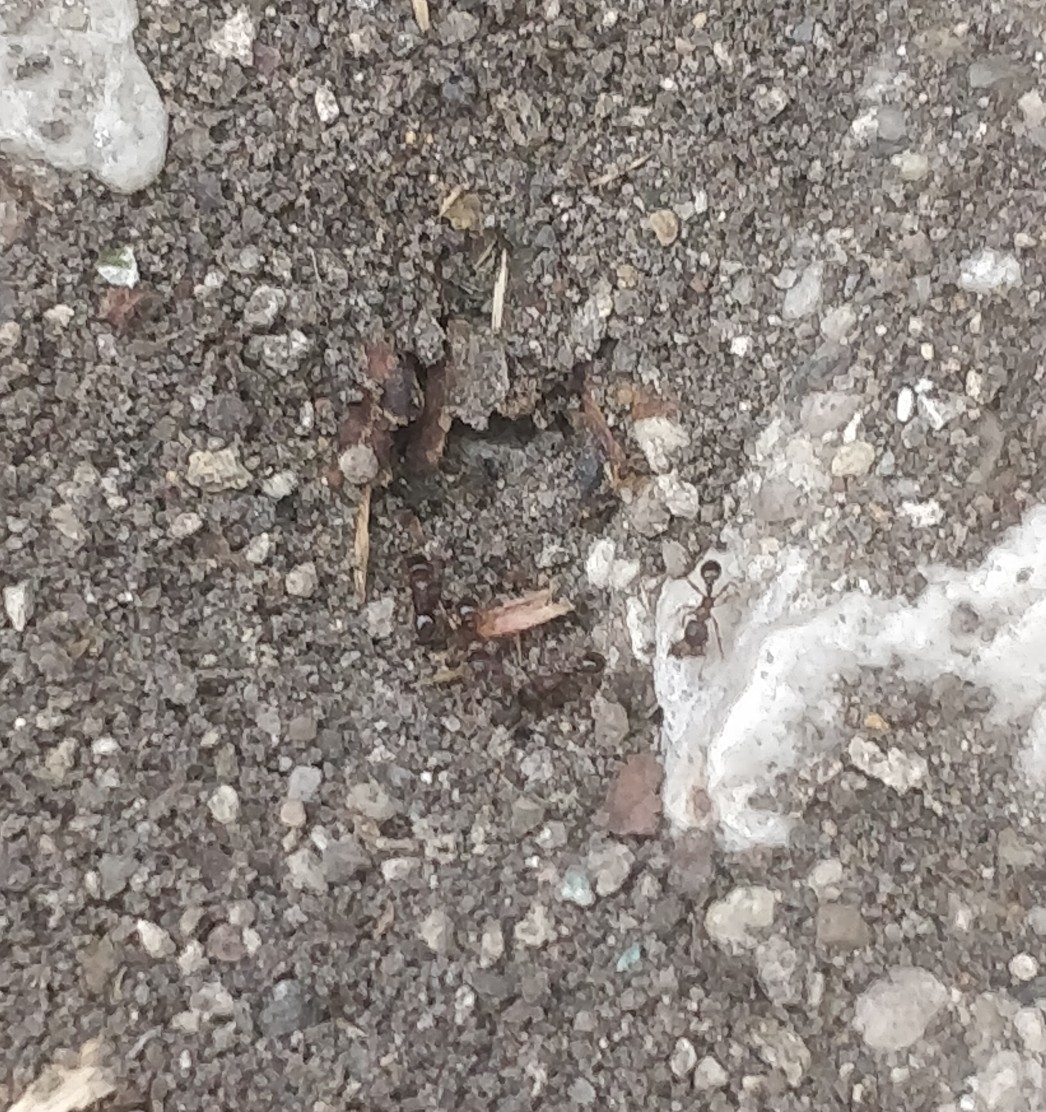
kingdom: Animalia
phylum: Arthropoda
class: Insecta
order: Hymenoptera
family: Formicidae
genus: Tetramorium
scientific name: Tetramorium immigrans
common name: Pavement ant
